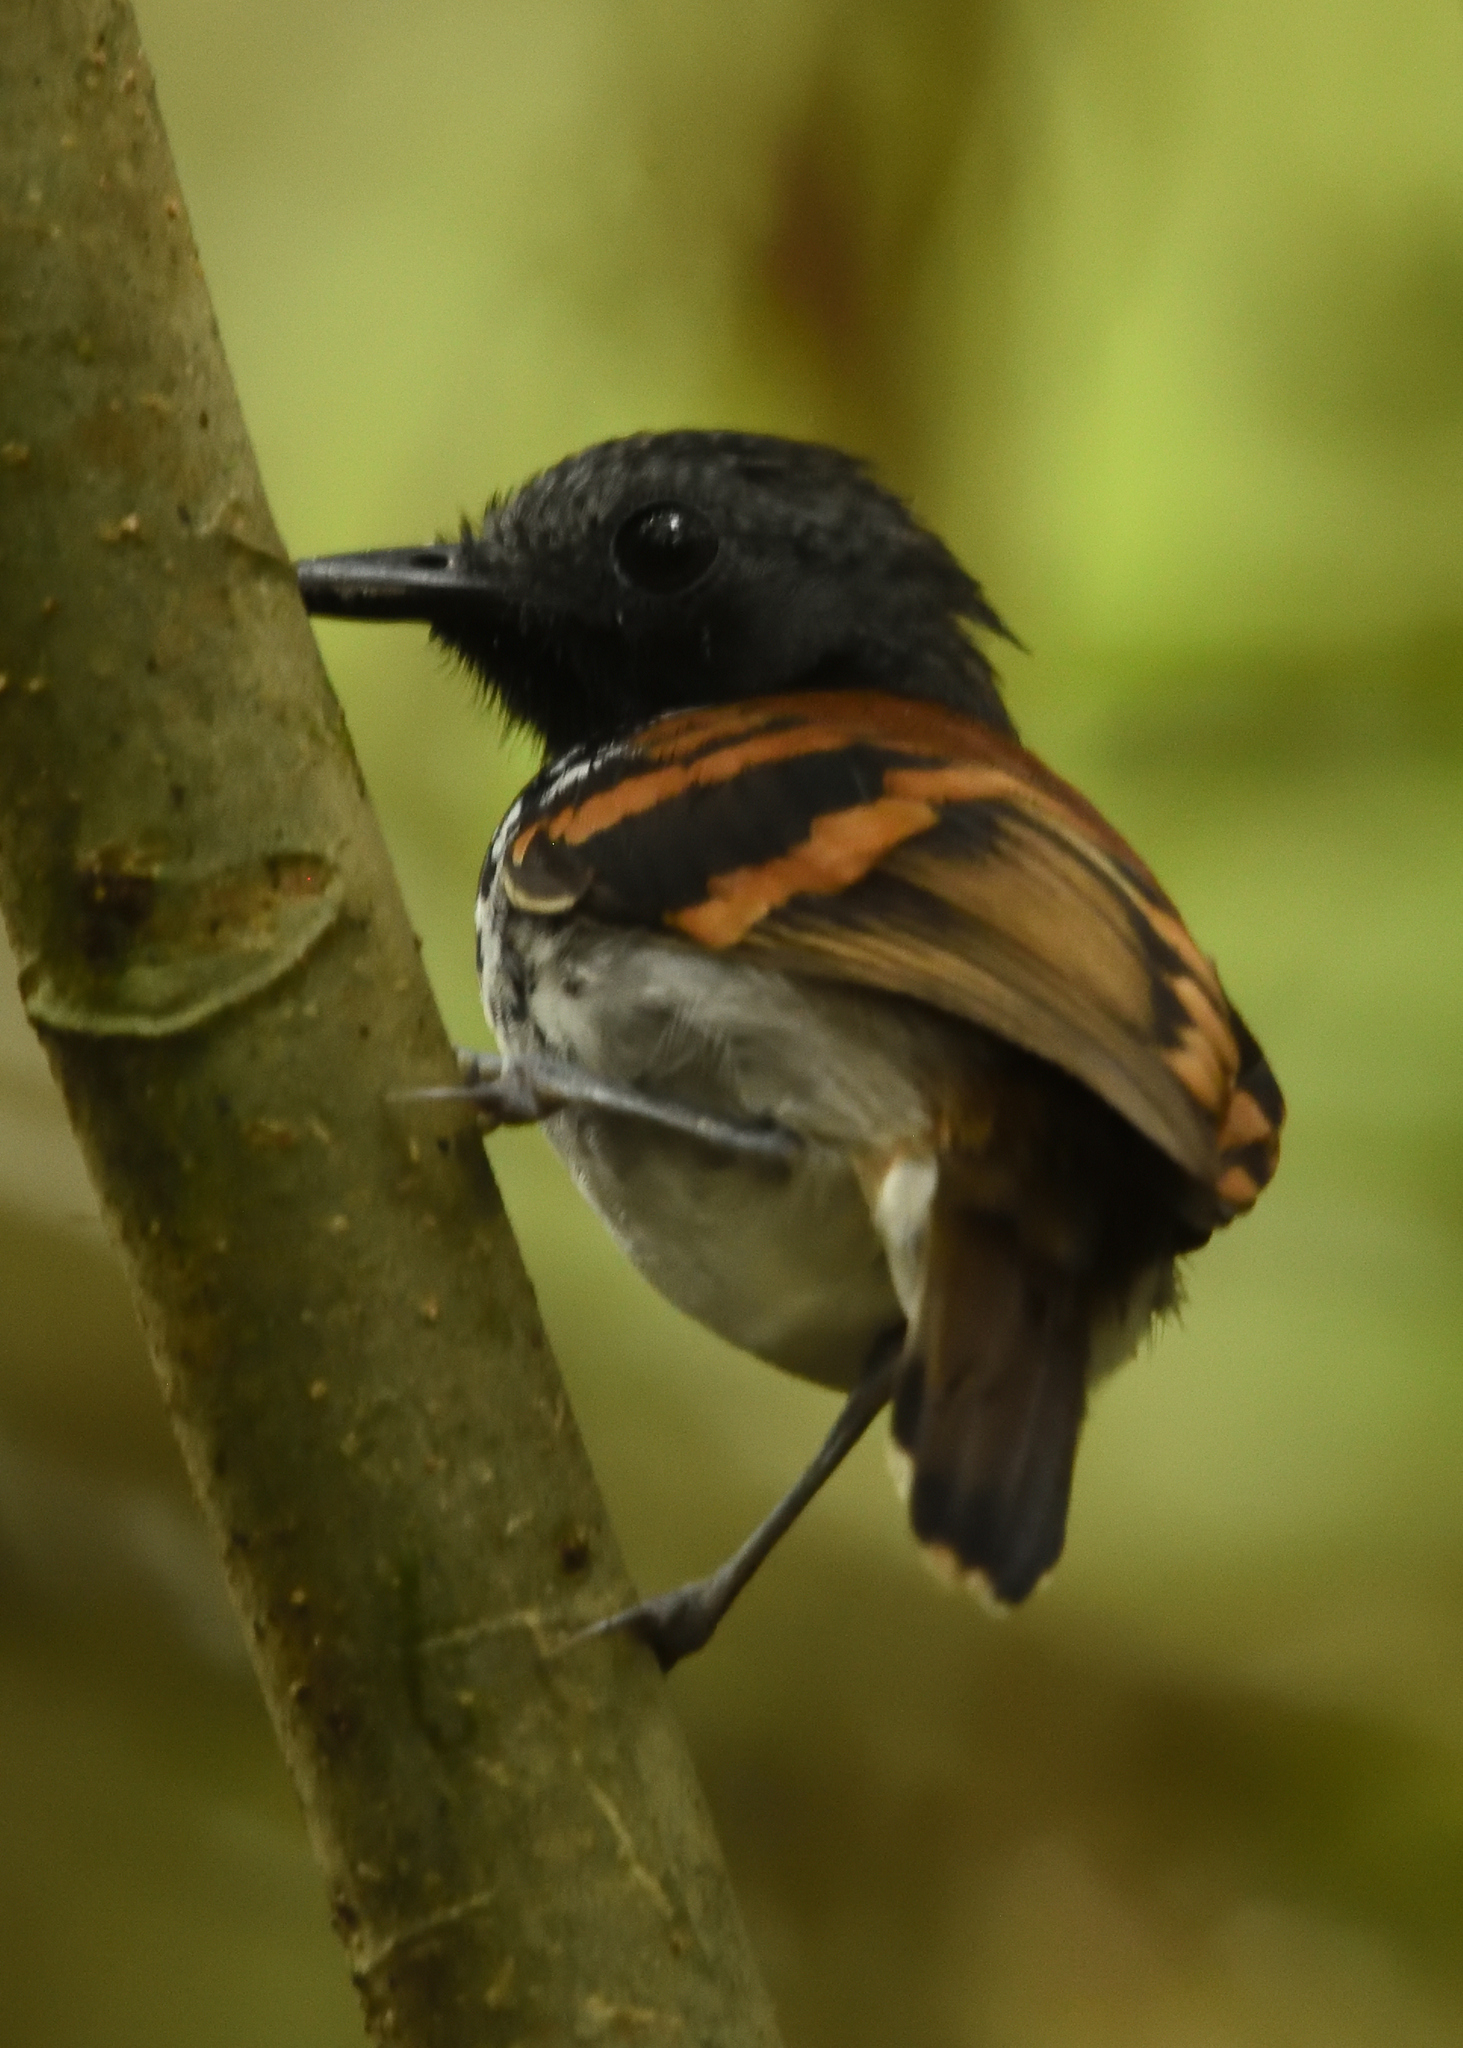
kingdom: Animalia
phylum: Chordata
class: Aves
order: Passeriformes
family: Thamnophilidae
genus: Hylophylax
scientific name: Hylophylax naevioides
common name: Spotted antbird
